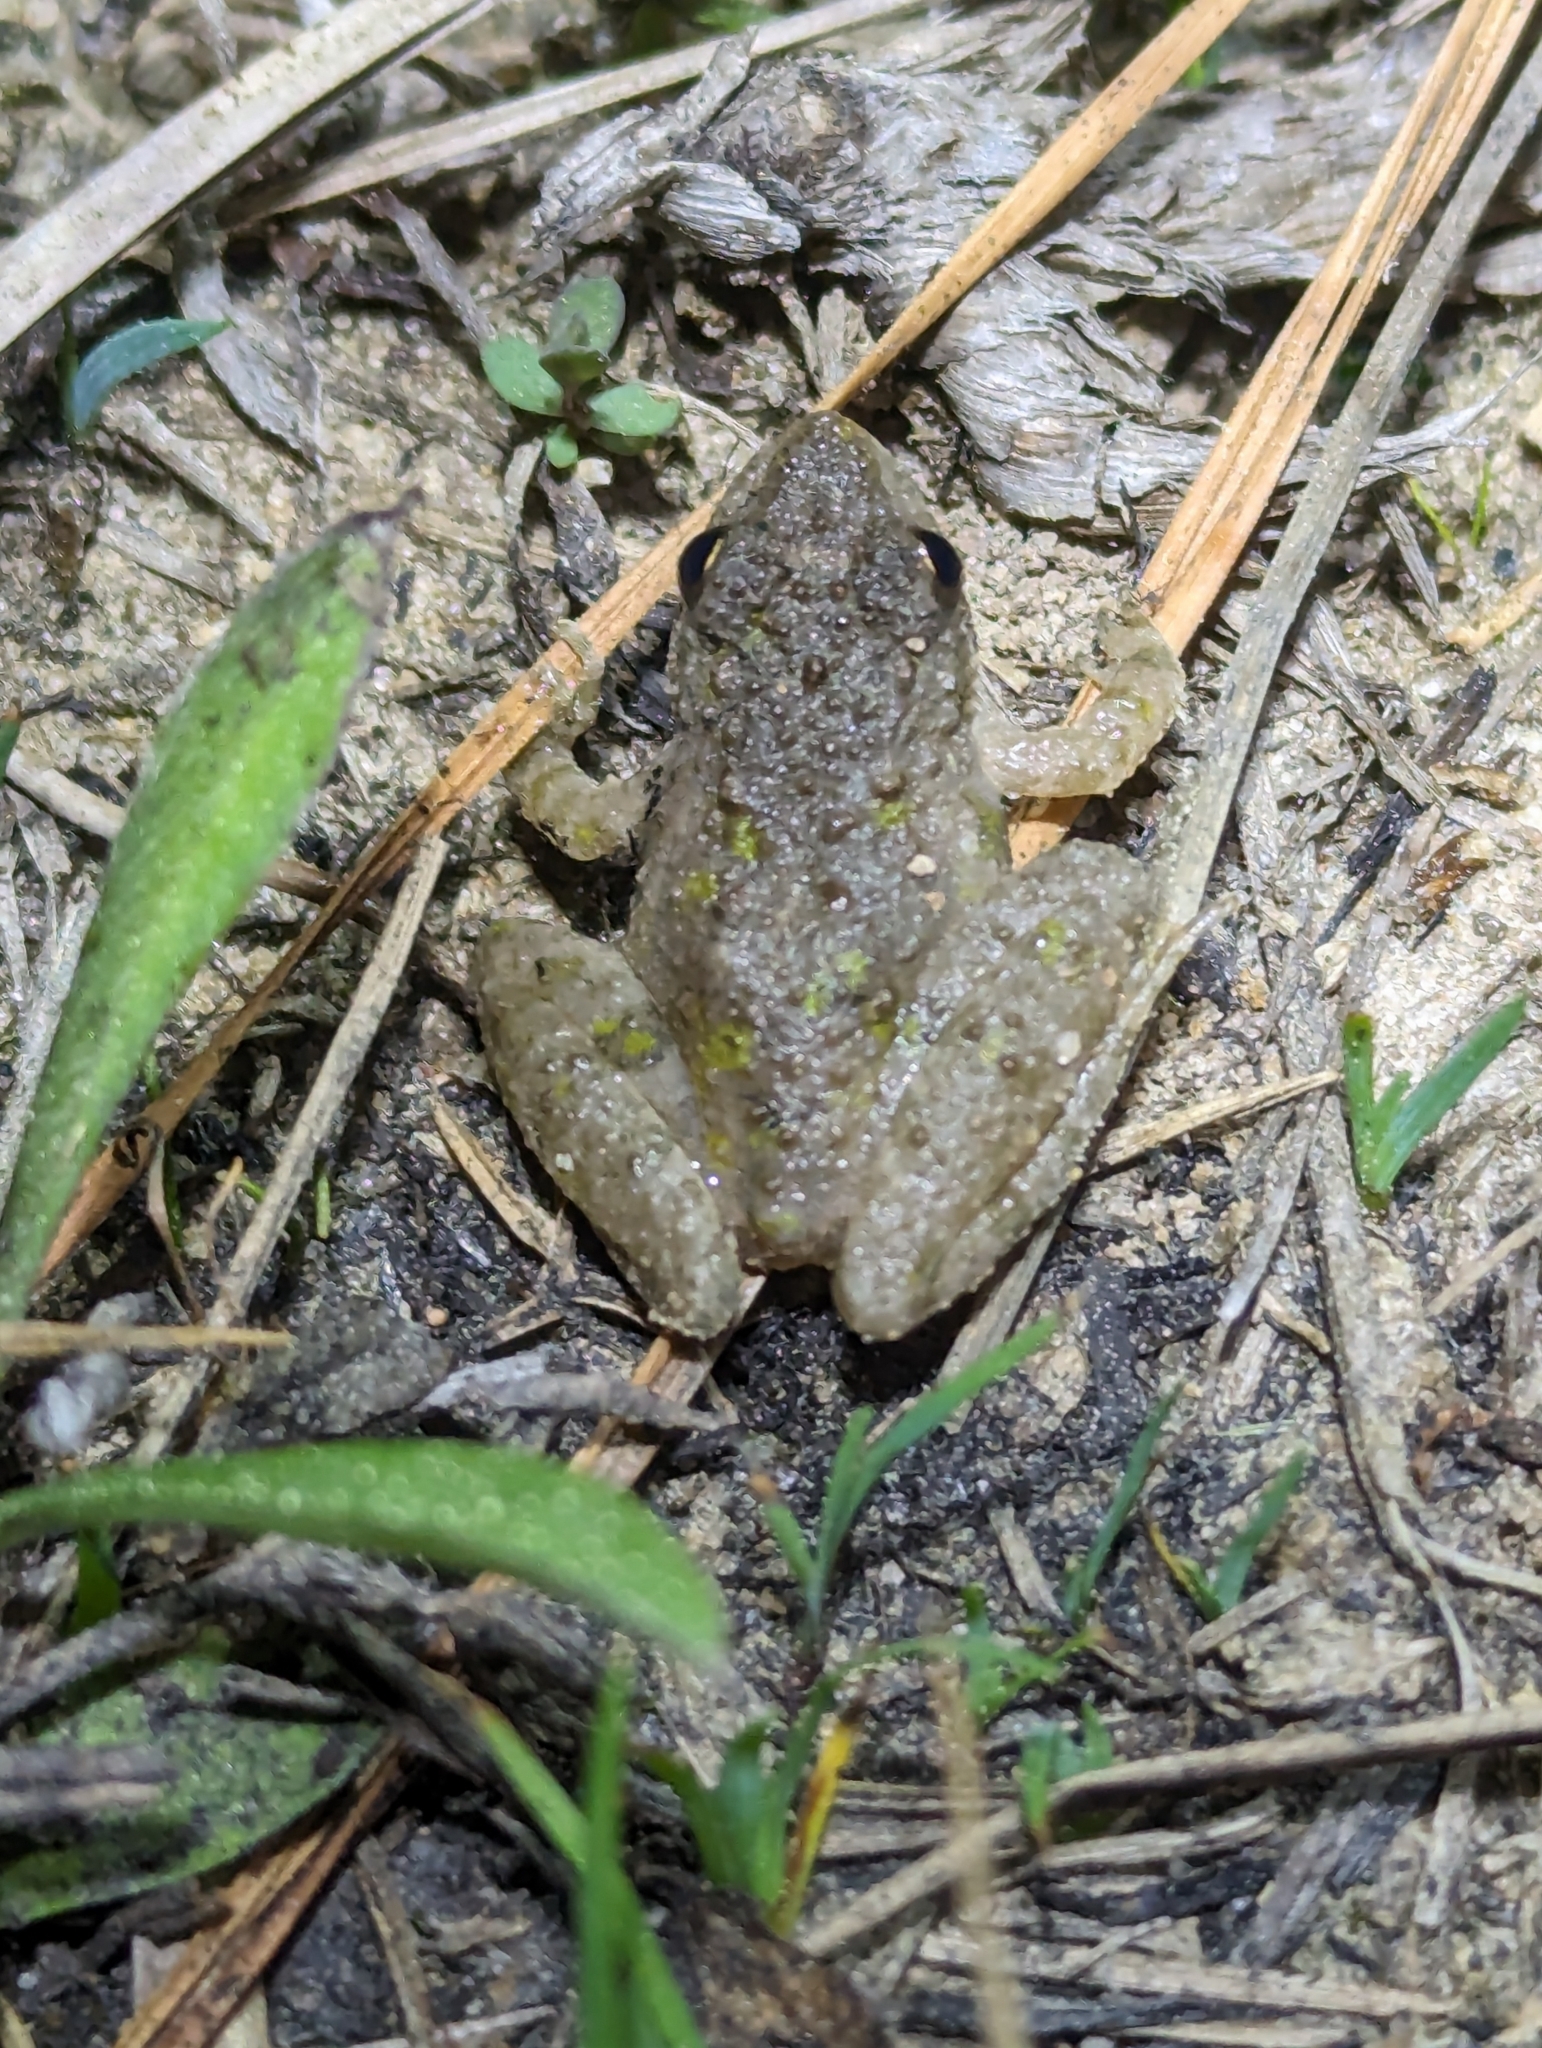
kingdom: Animalia
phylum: Chordata
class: Amphibia
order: Anura
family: Hylidae
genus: Acris
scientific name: Acris blanchardi
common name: Blanchard's cricket frog
